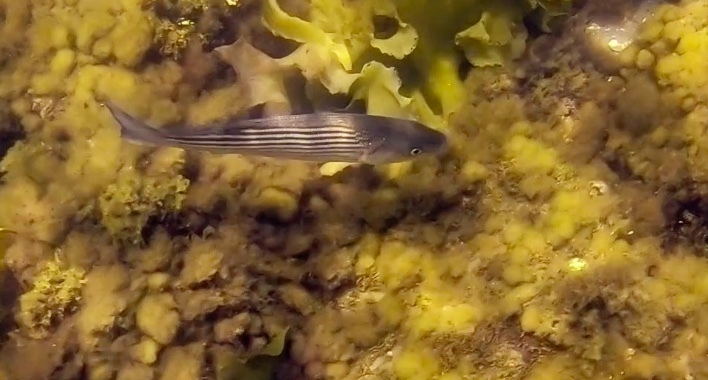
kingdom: Animalia
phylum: Chordata
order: Perciformes
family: Moronidae
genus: Morone
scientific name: Morone saxatilis
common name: Striped bass
